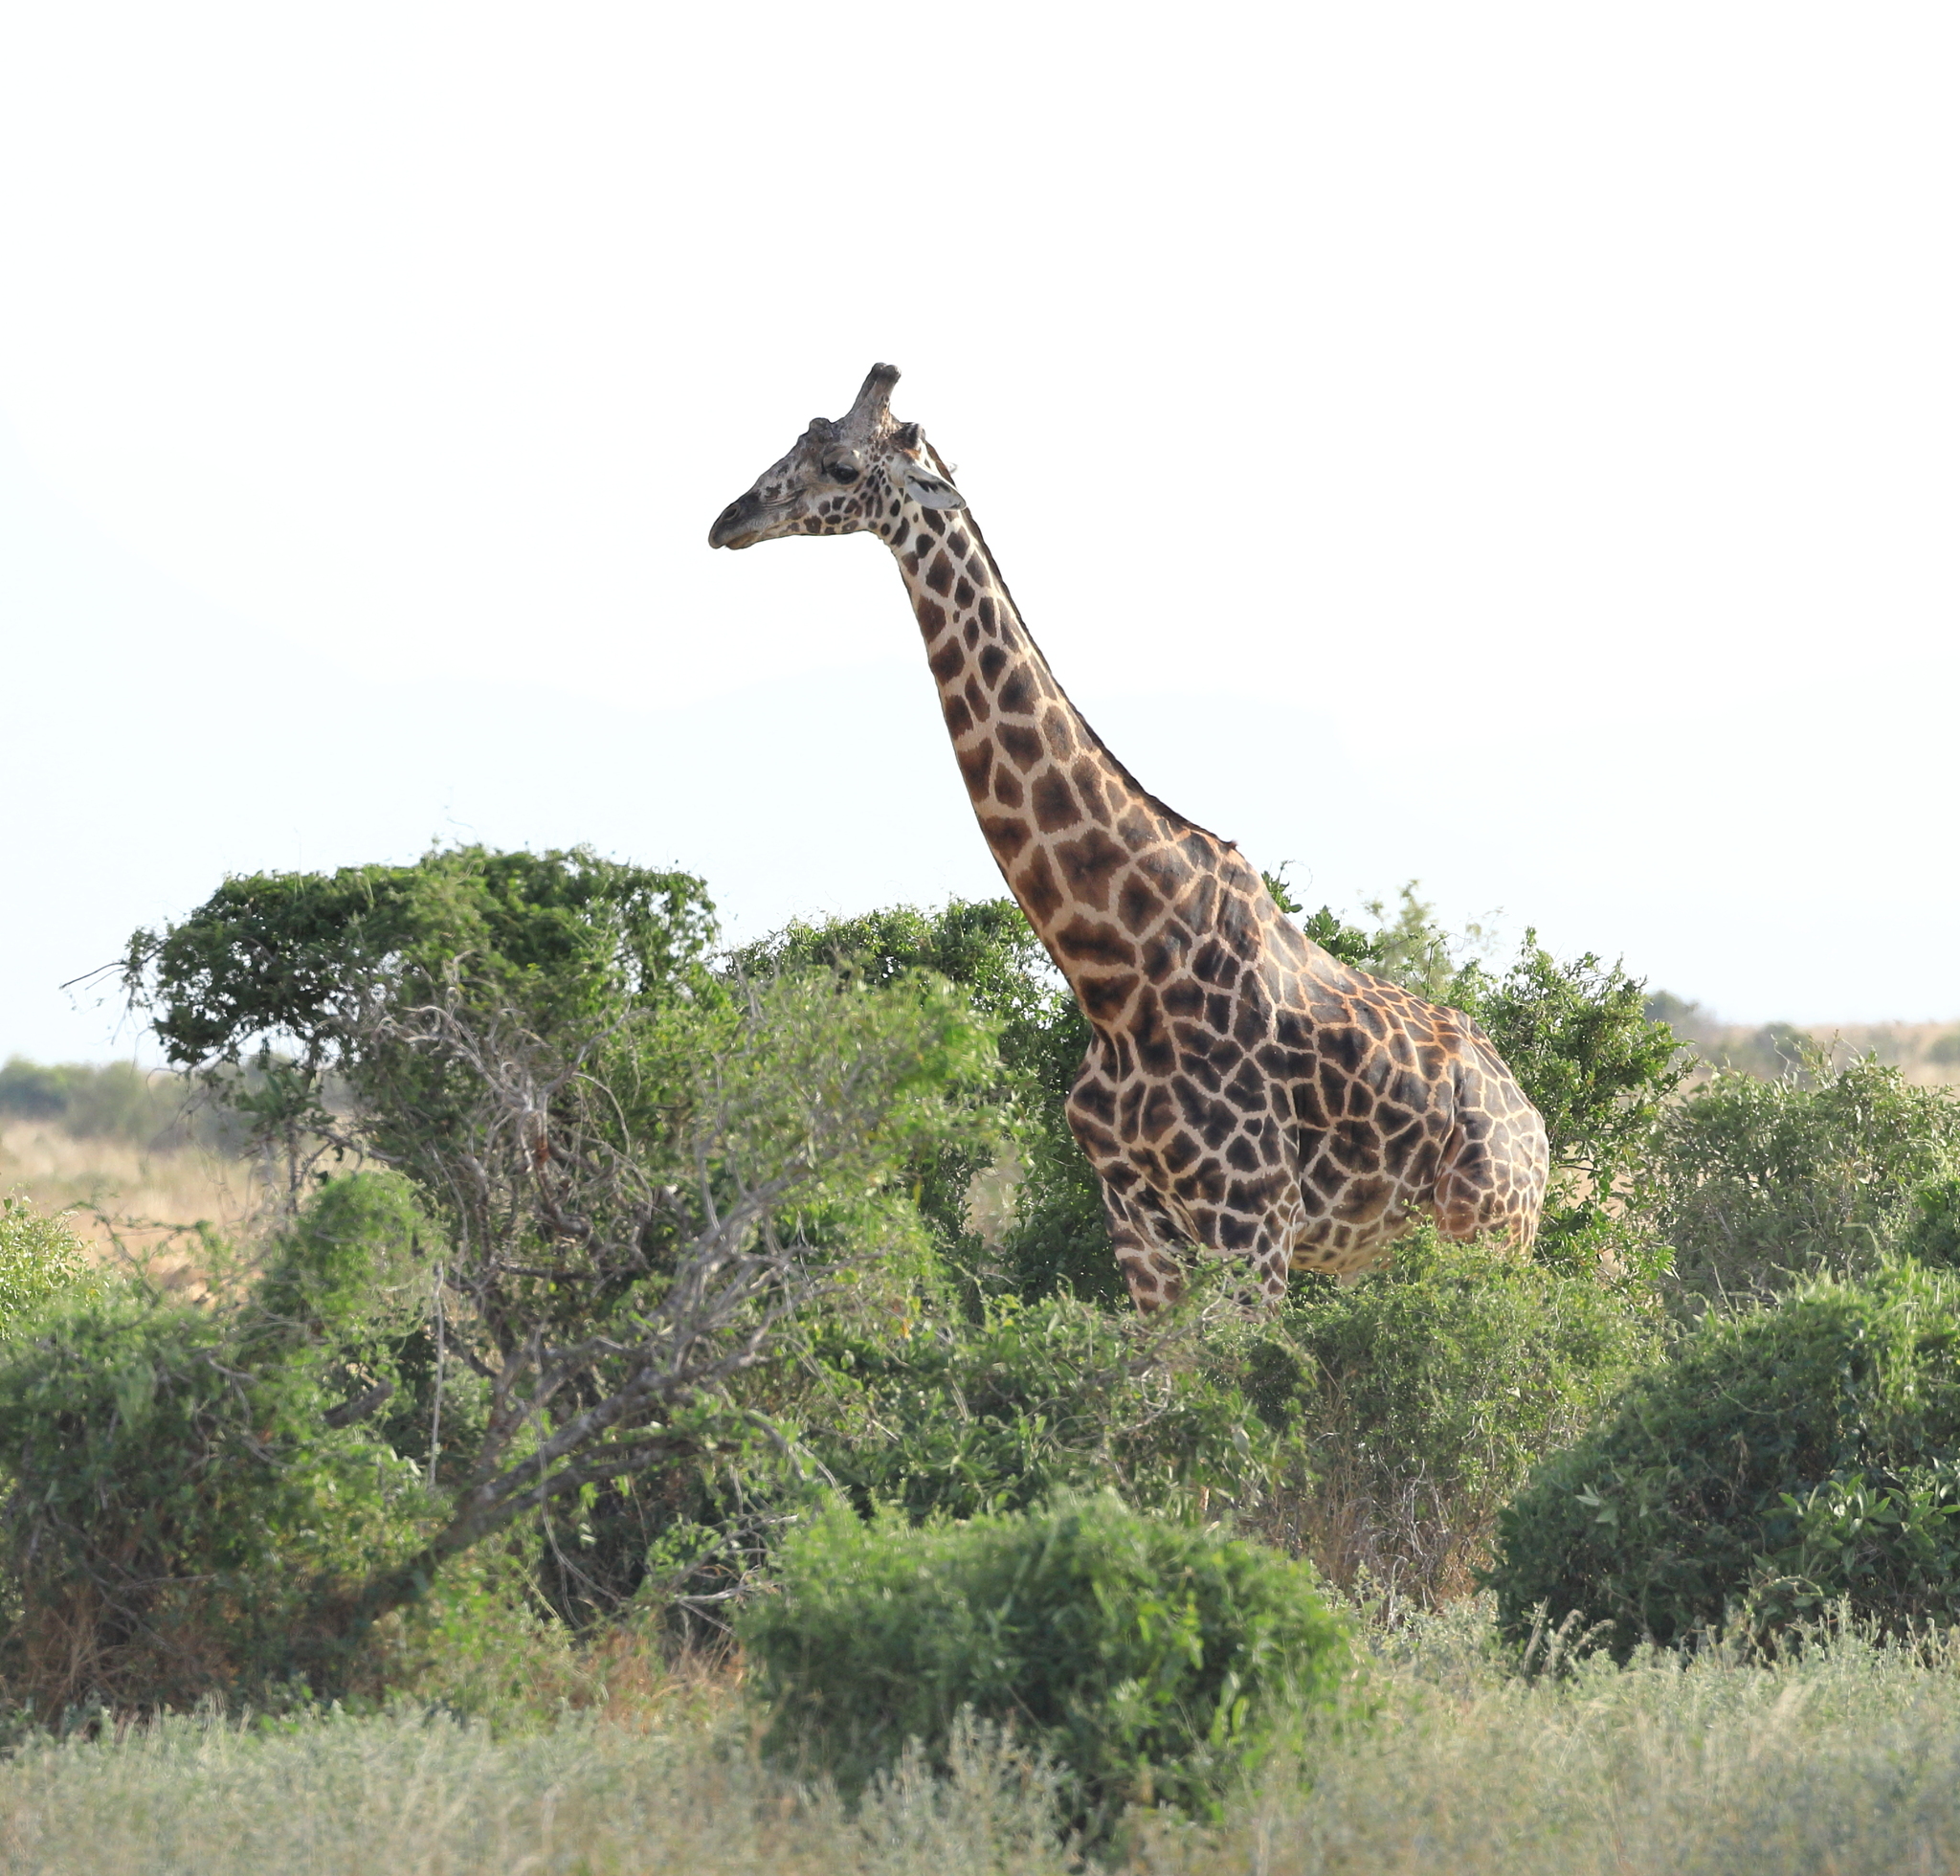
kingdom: Animalia
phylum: Chordata
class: Mammalia
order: Artiodactyla
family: Giraffidae
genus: Giraffa
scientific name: Giraffa tippelskirchi
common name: Masai giraffe
